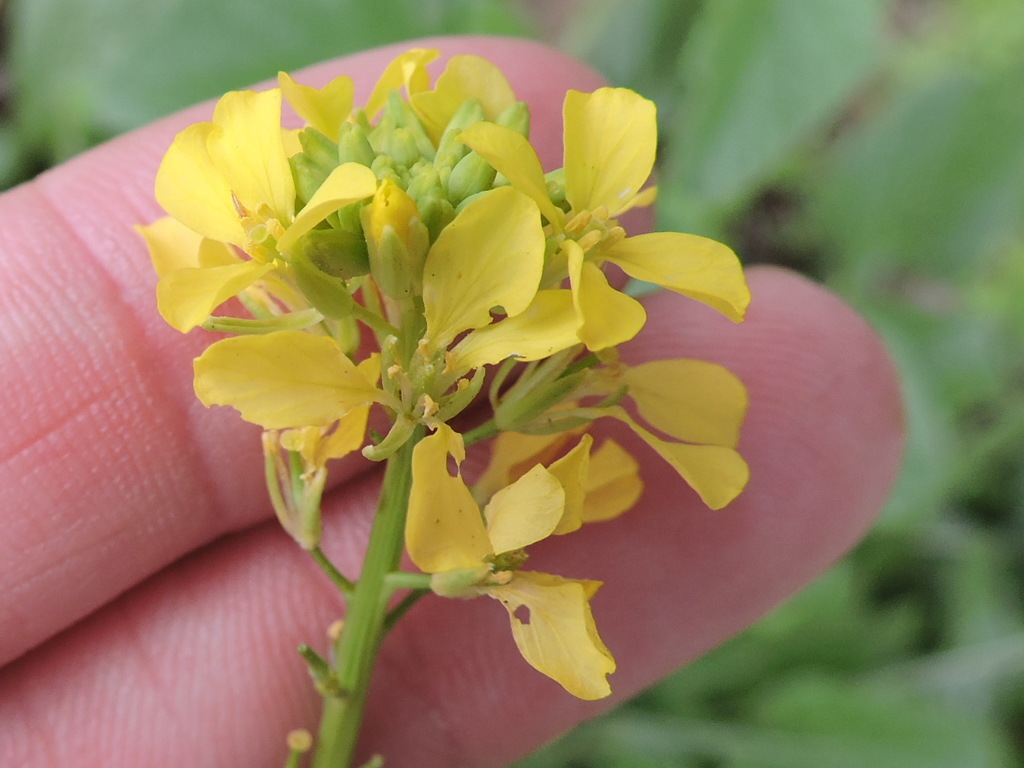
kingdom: Plantae
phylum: Tracheophyta
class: Magnoliopsida
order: Brassicales
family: Brassicaceae
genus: Rapistrum
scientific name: Rapistrum rugosum
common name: Annual bastardcabbage
